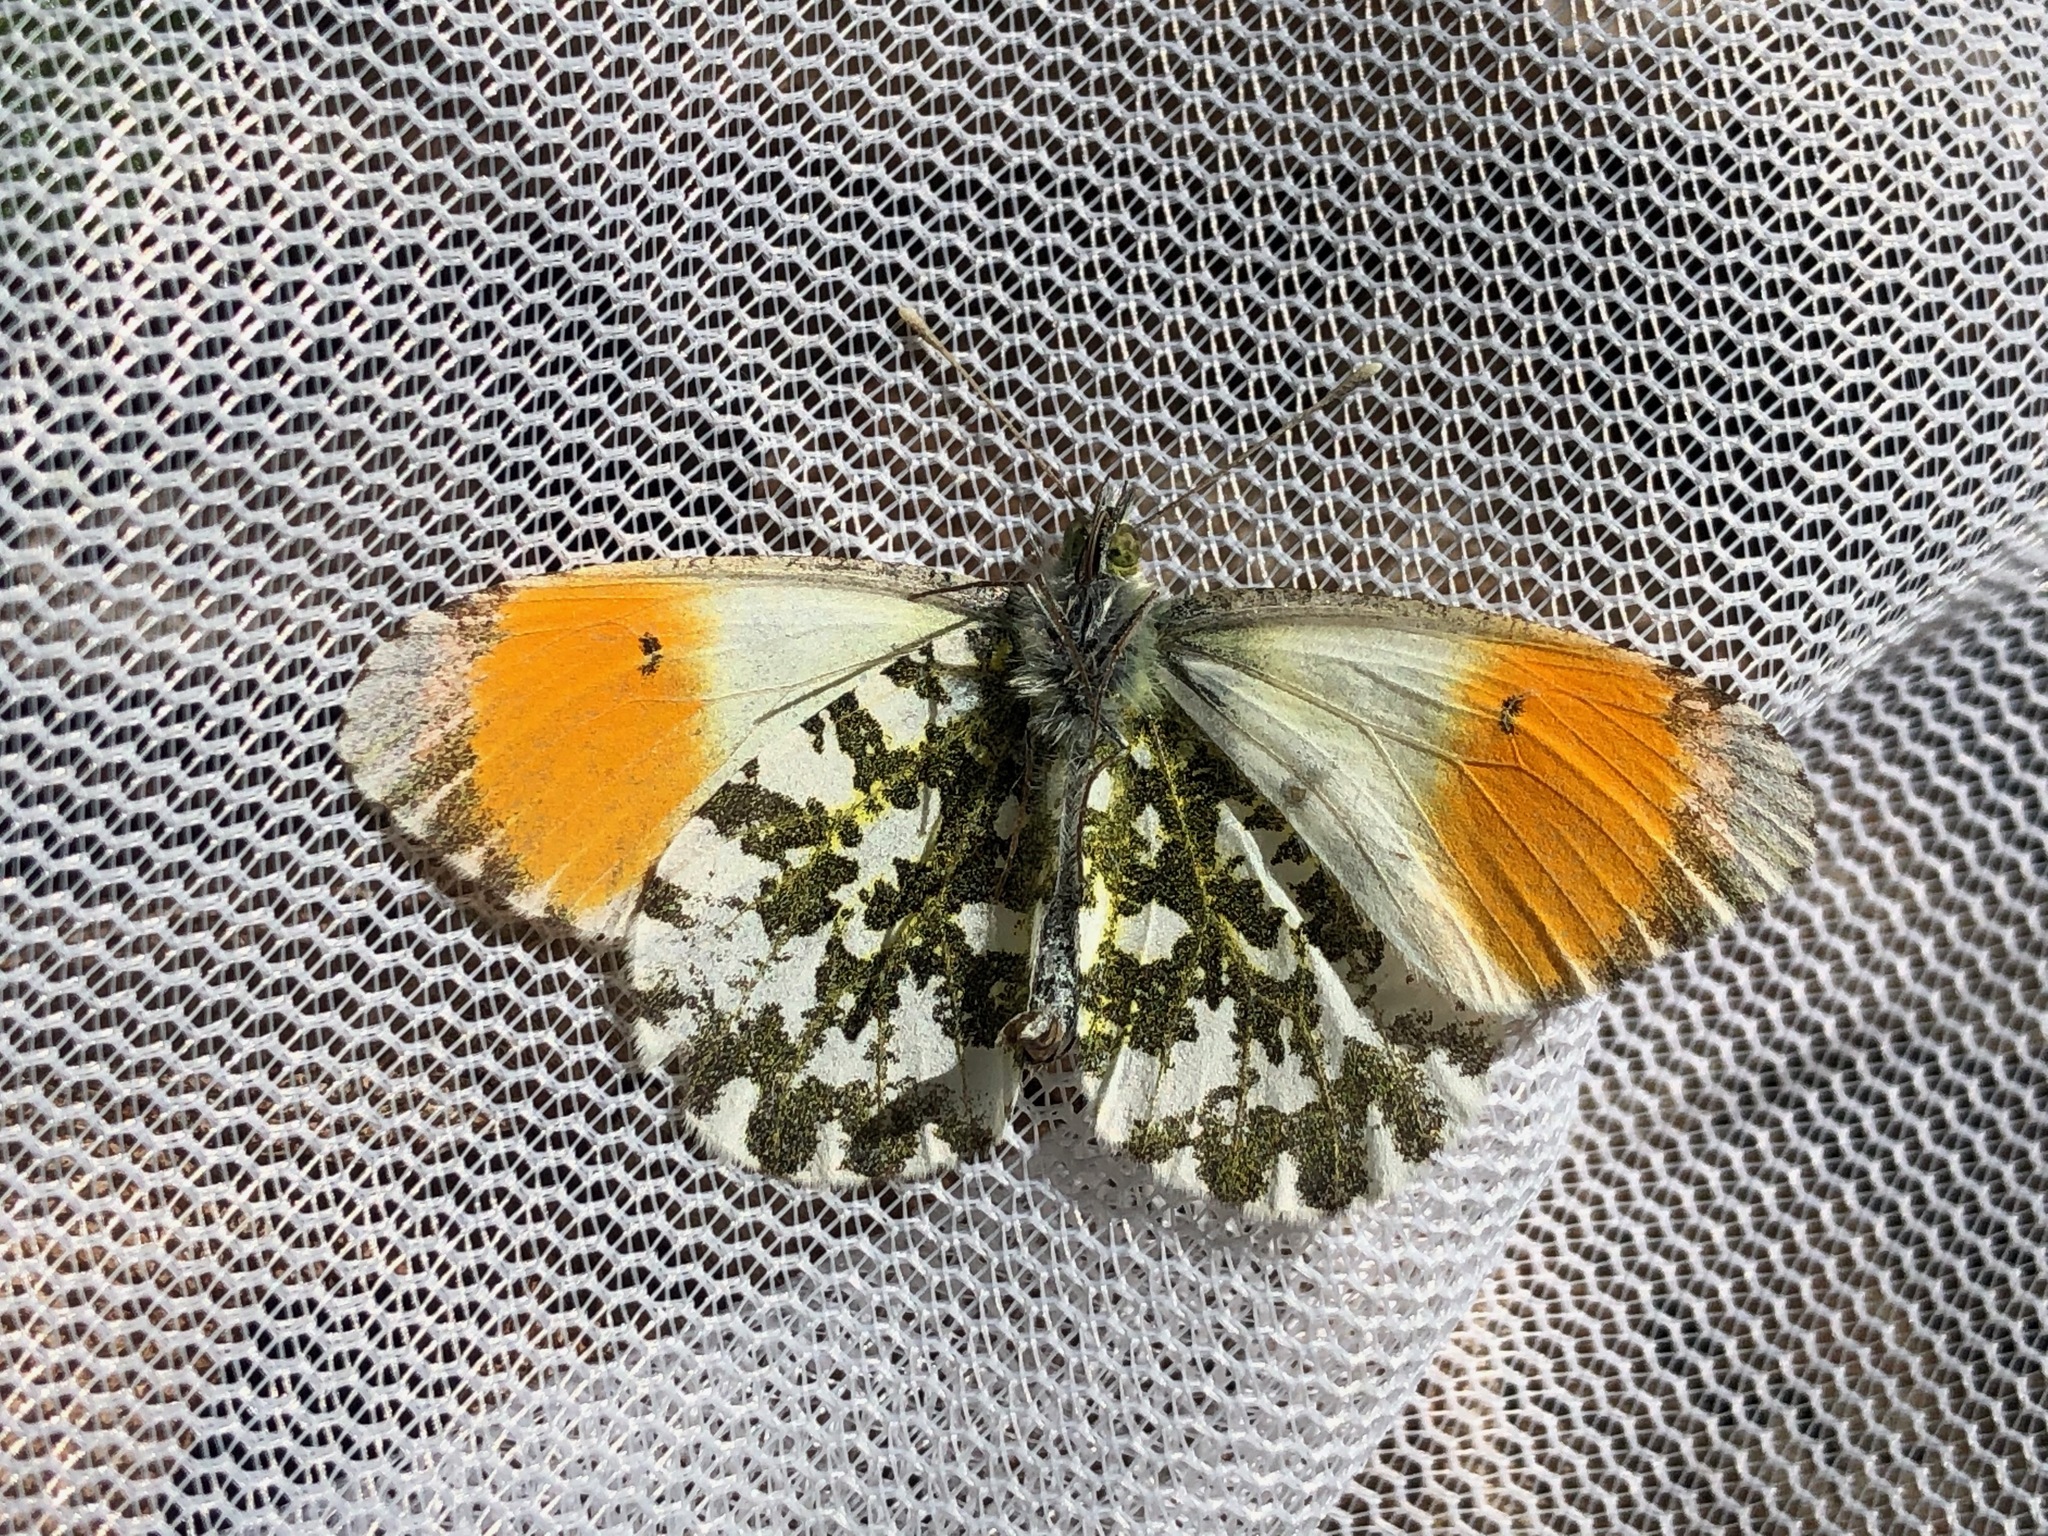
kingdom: Animalia
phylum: Arthropoda
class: Insecta
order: Lepidoptera
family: Pieridae
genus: Anthocharis
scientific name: Anthocharis cardamines
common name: Orange-tip
